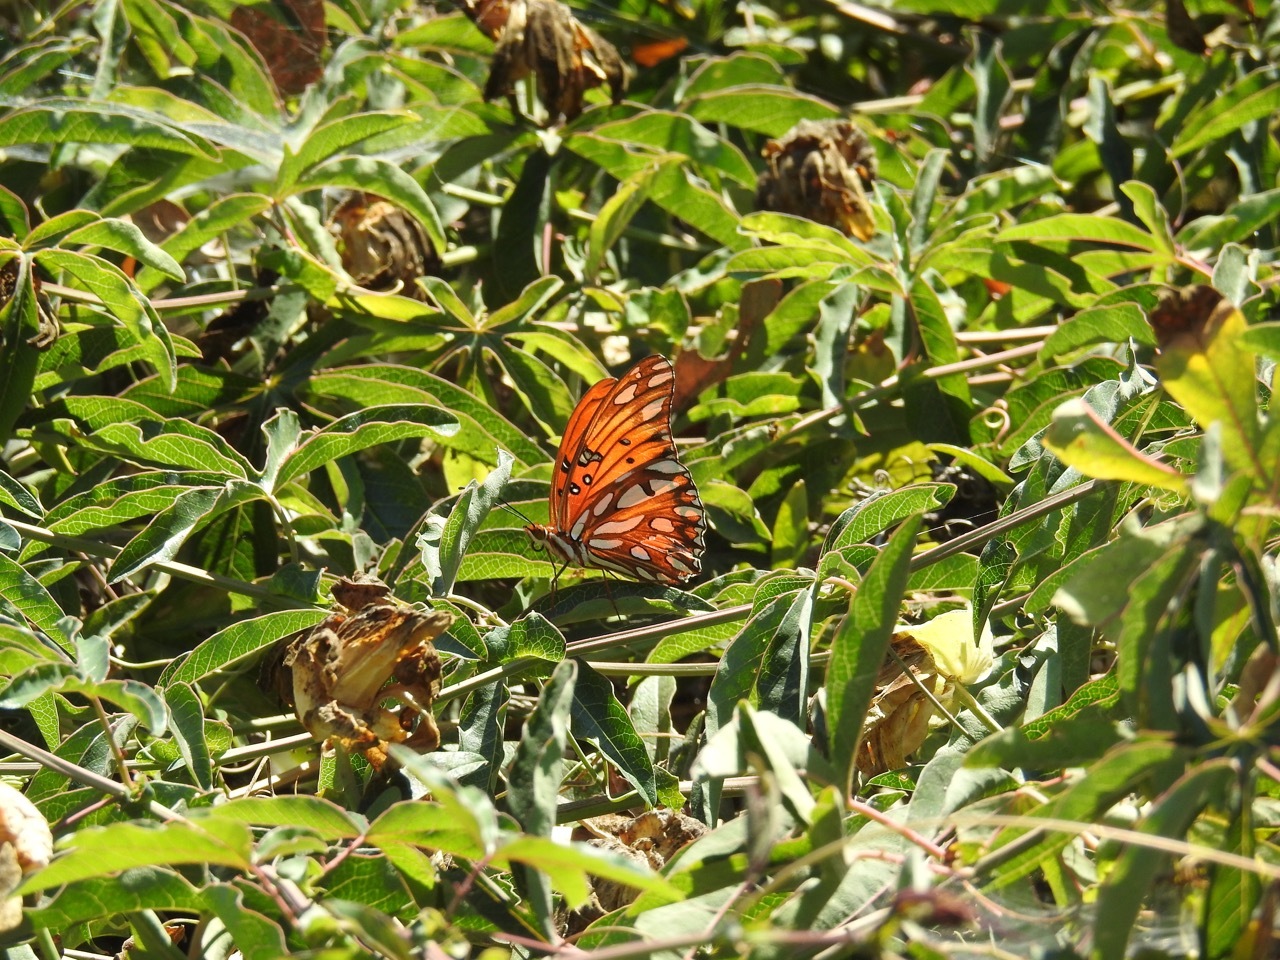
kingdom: Animalia
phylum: Arthropoda
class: Insecta
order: Lepidoptera
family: Nymphalidae
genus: Dione
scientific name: Dione vanillae
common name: Gulf fritillary
